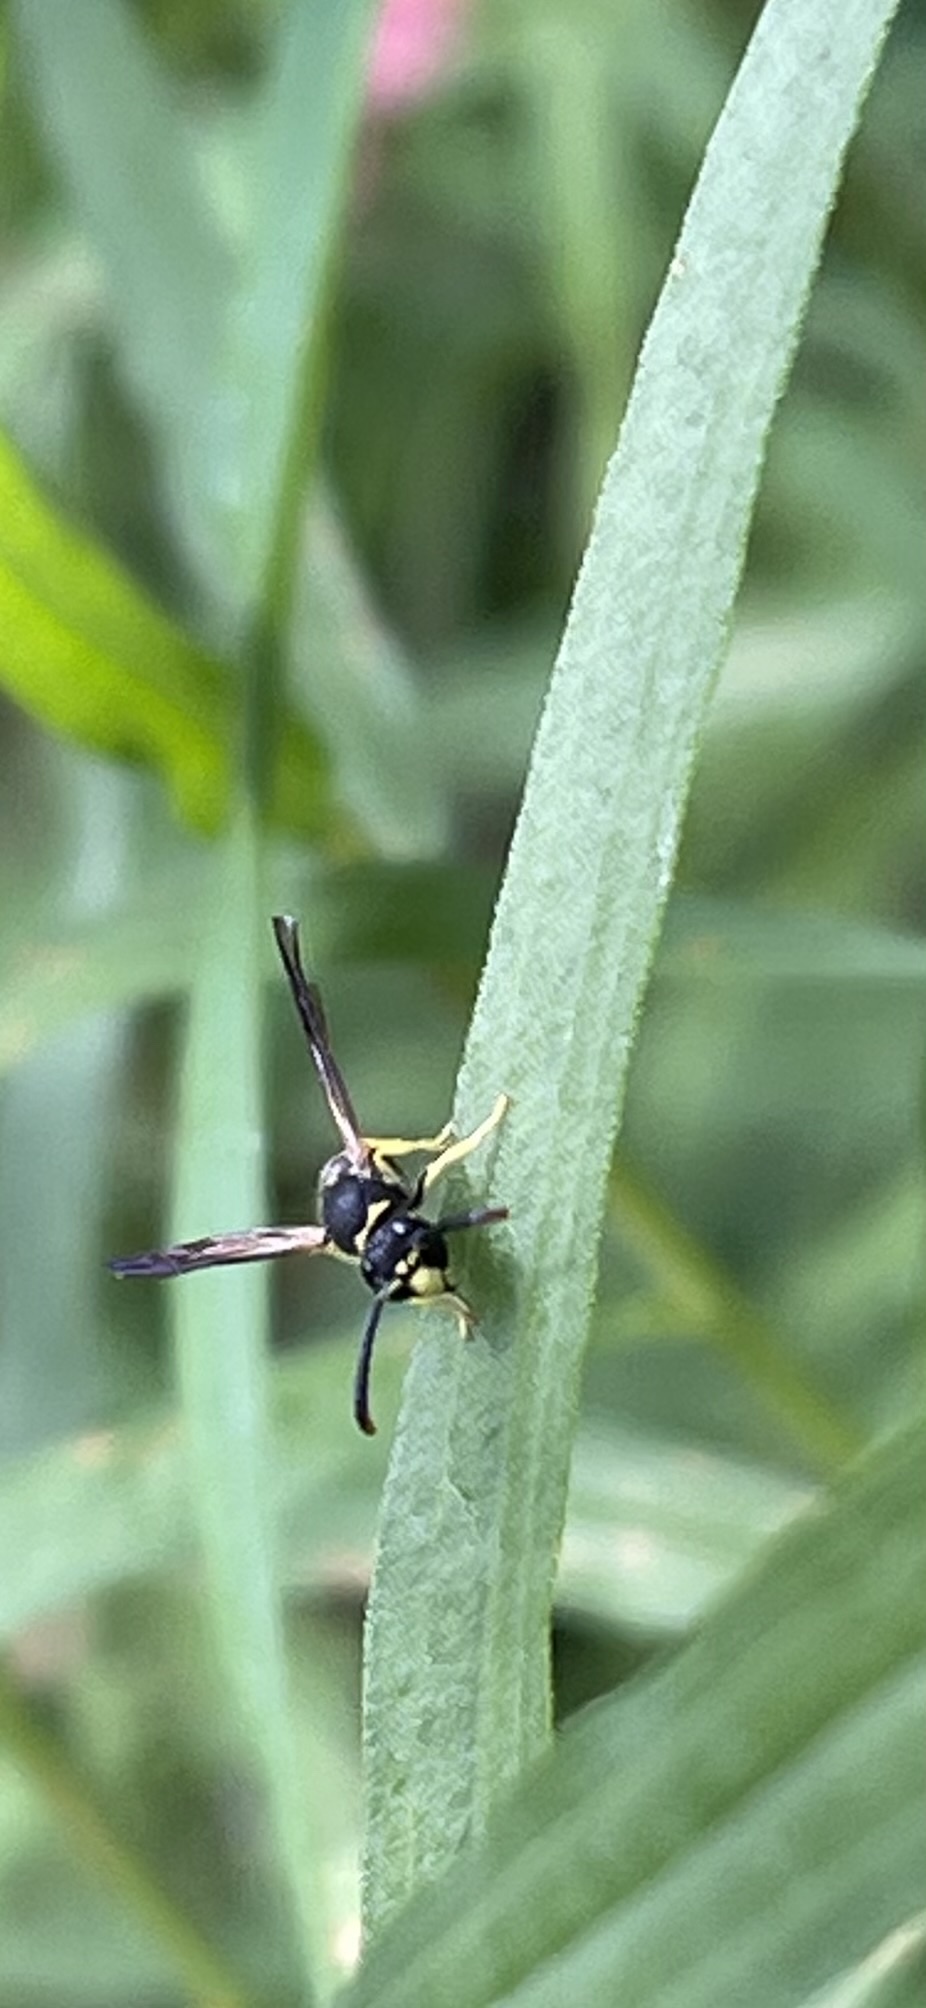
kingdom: Animalia
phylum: Arthropoda
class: Insecta
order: Hymenoptera
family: Vespidae
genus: Ancistrocerus
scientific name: Ancistrocerus adiabatus
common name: Bramble mason wasp
